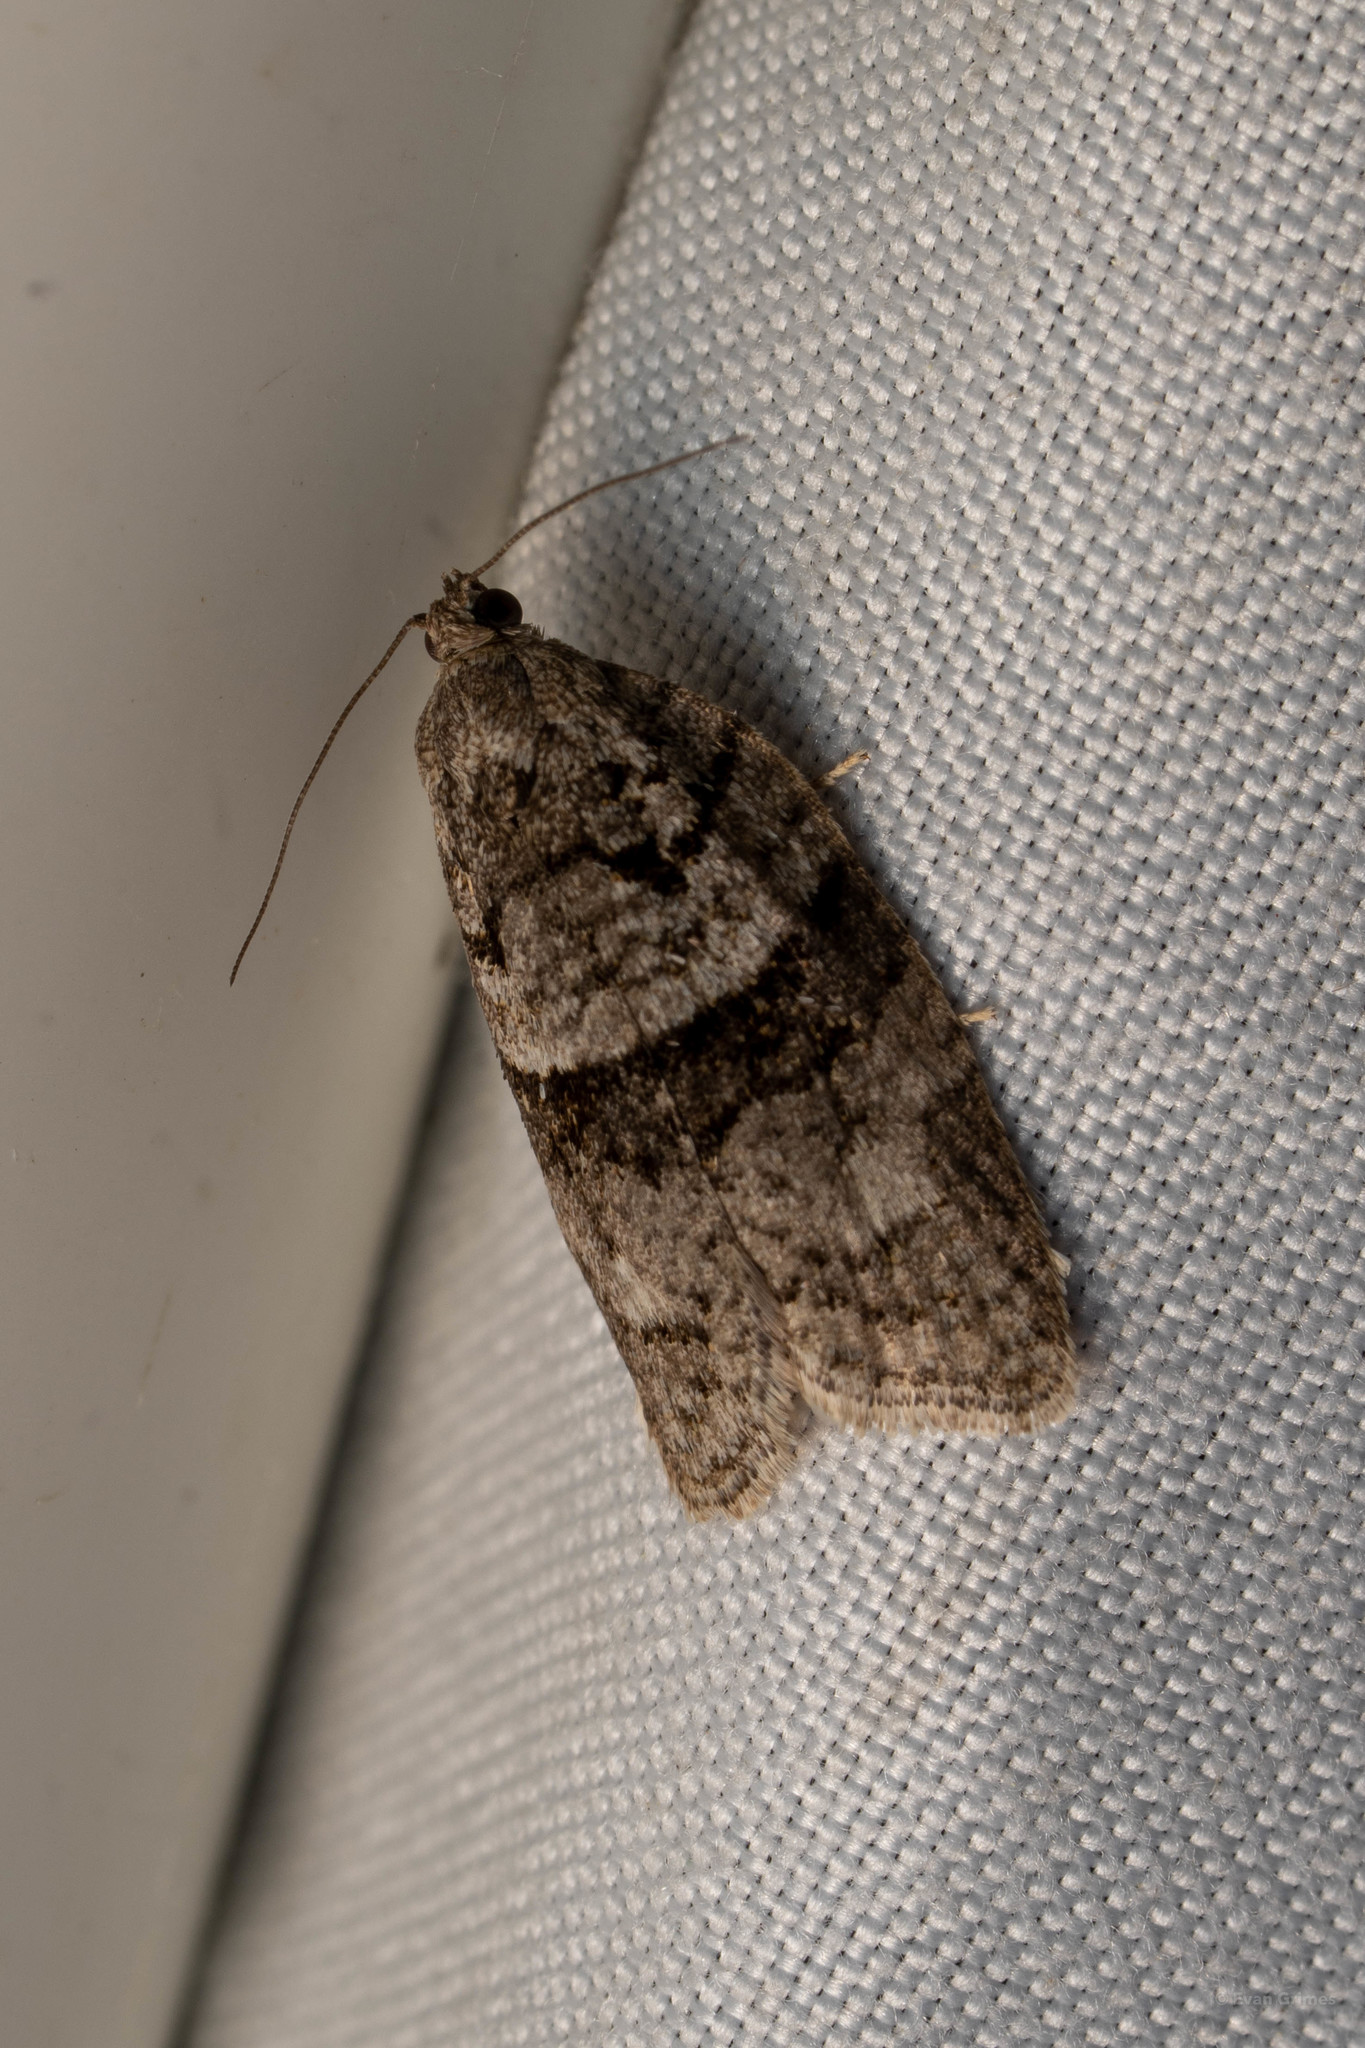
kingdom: Animalia
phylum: Arthropoda
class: Insecta
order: Lepidoptera
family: Tortricidae
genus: Syndemis
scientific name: Syndemis afflictana
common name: Gray leafroller moth
